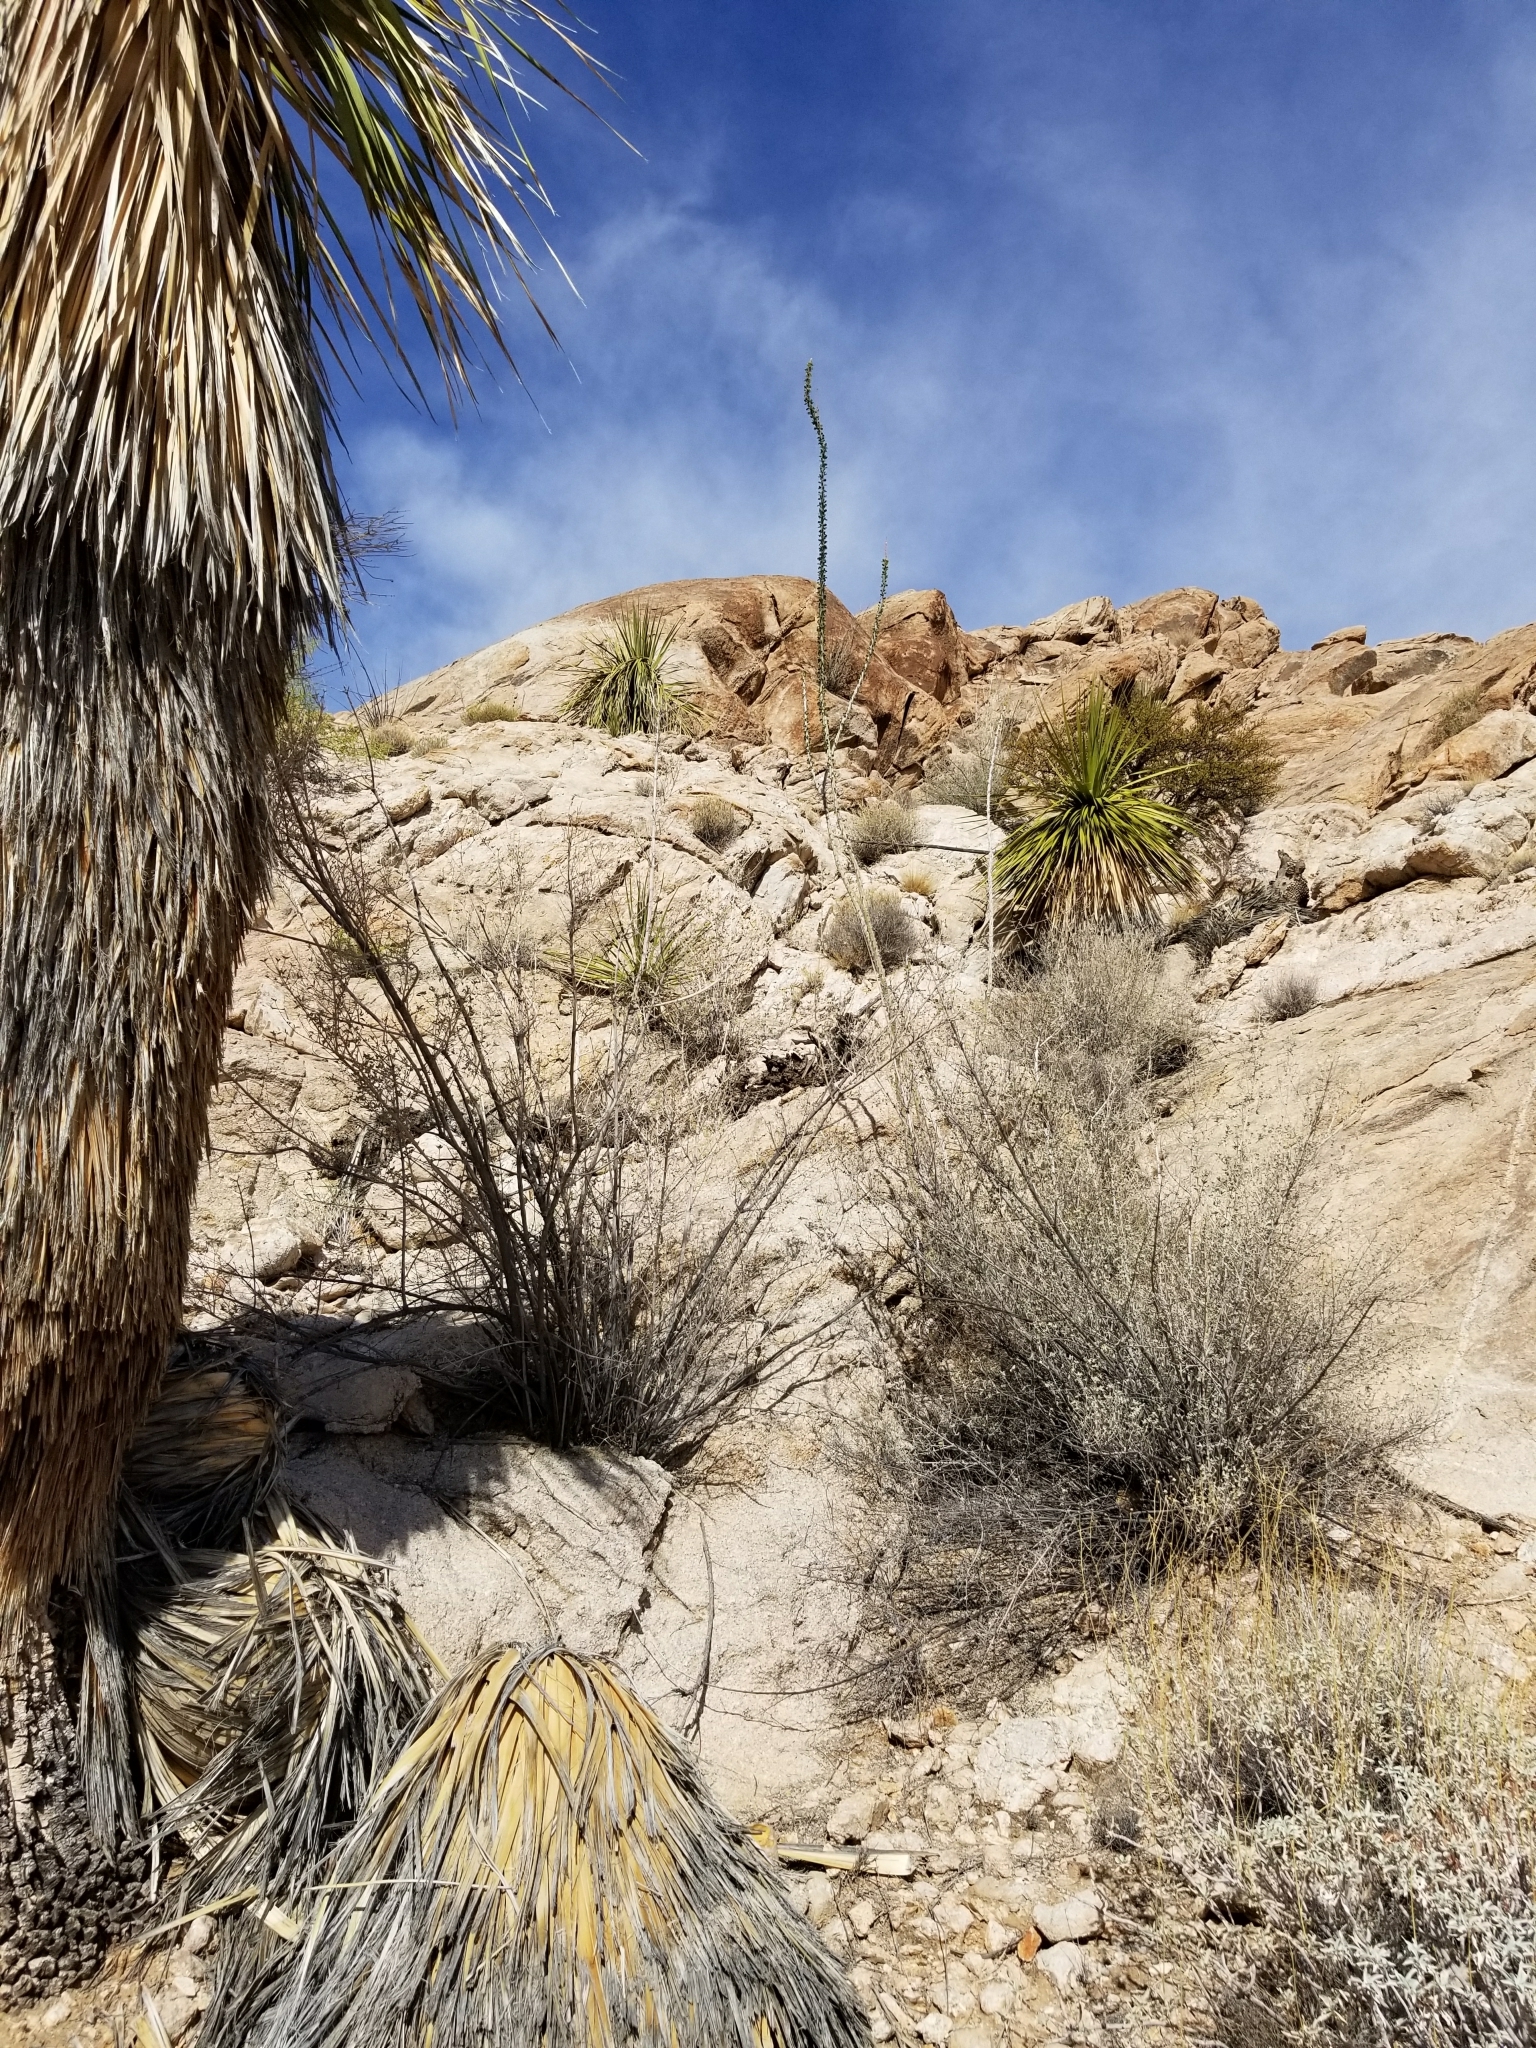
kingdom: Plantae
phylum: Tracheophyta
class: Liliopsida
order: Asparagales
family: Asparagaceae
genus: Nolina
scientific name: Nolina bigelovii
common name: Bigelow bear-grass
